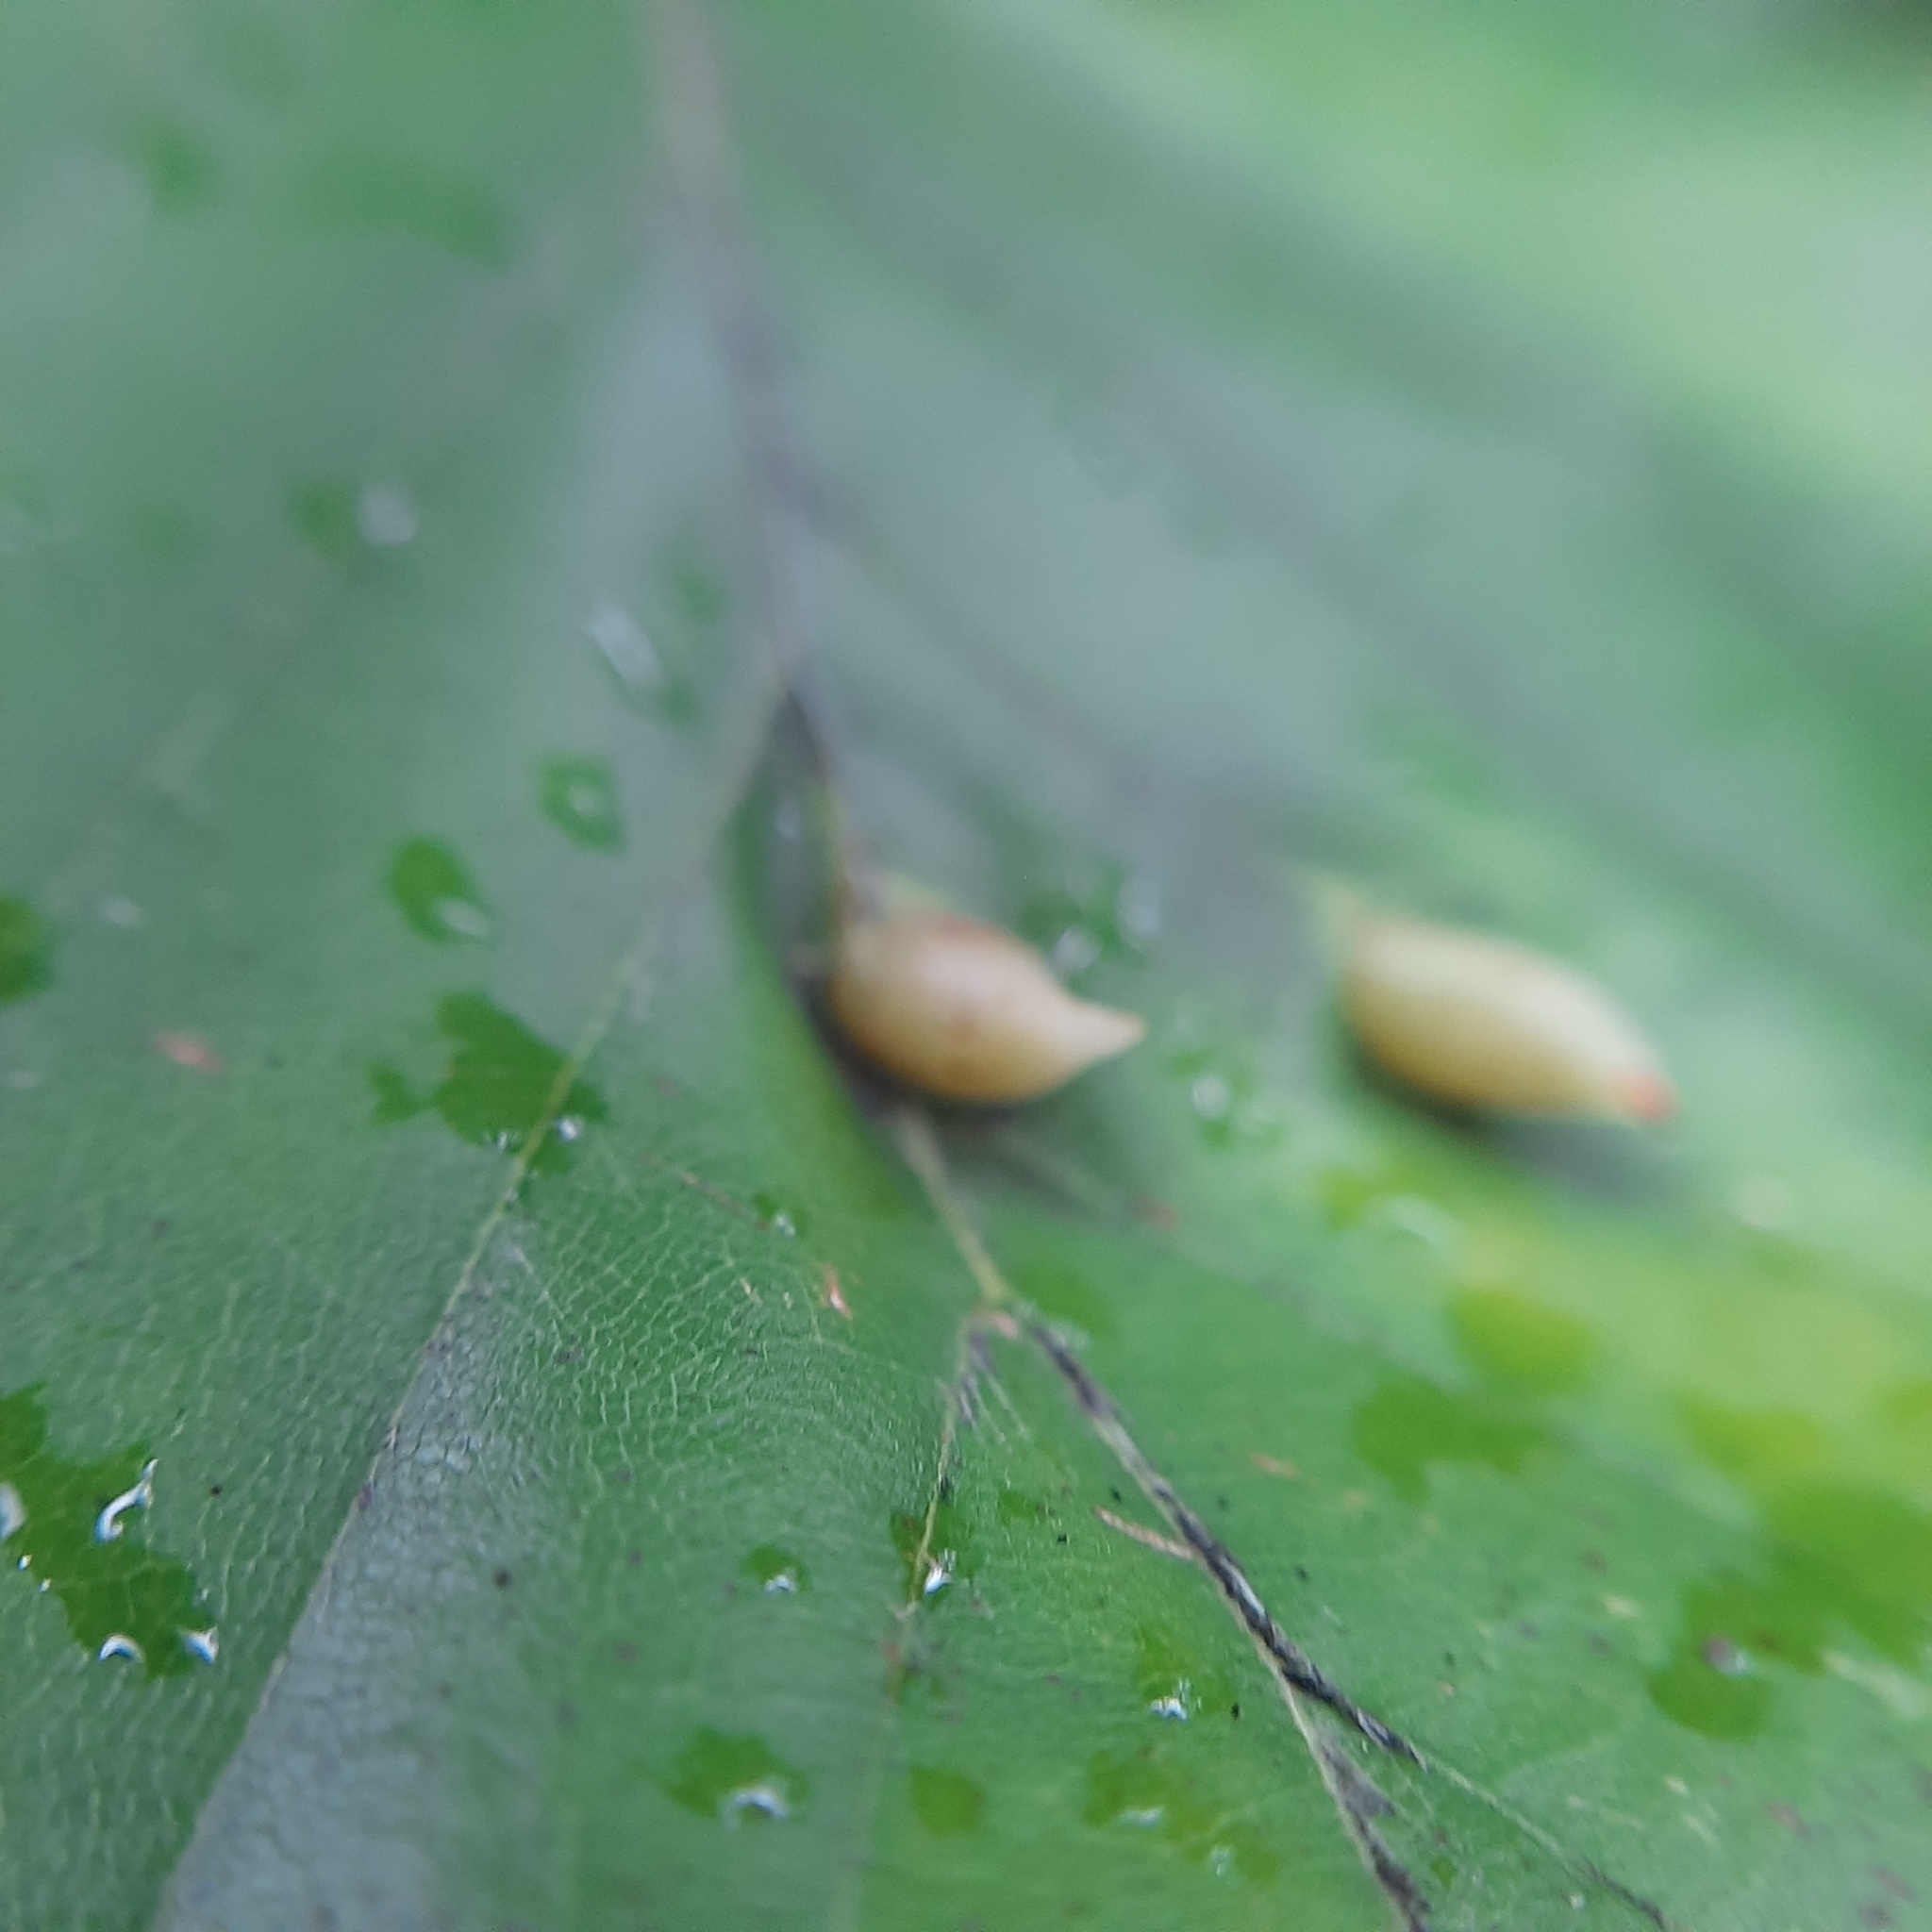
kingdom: Animalia
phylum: Arthropoda
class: Insecta
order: Diptera
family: Cecidomyiidae
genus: Mikiola
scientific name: Mikiola fagi
